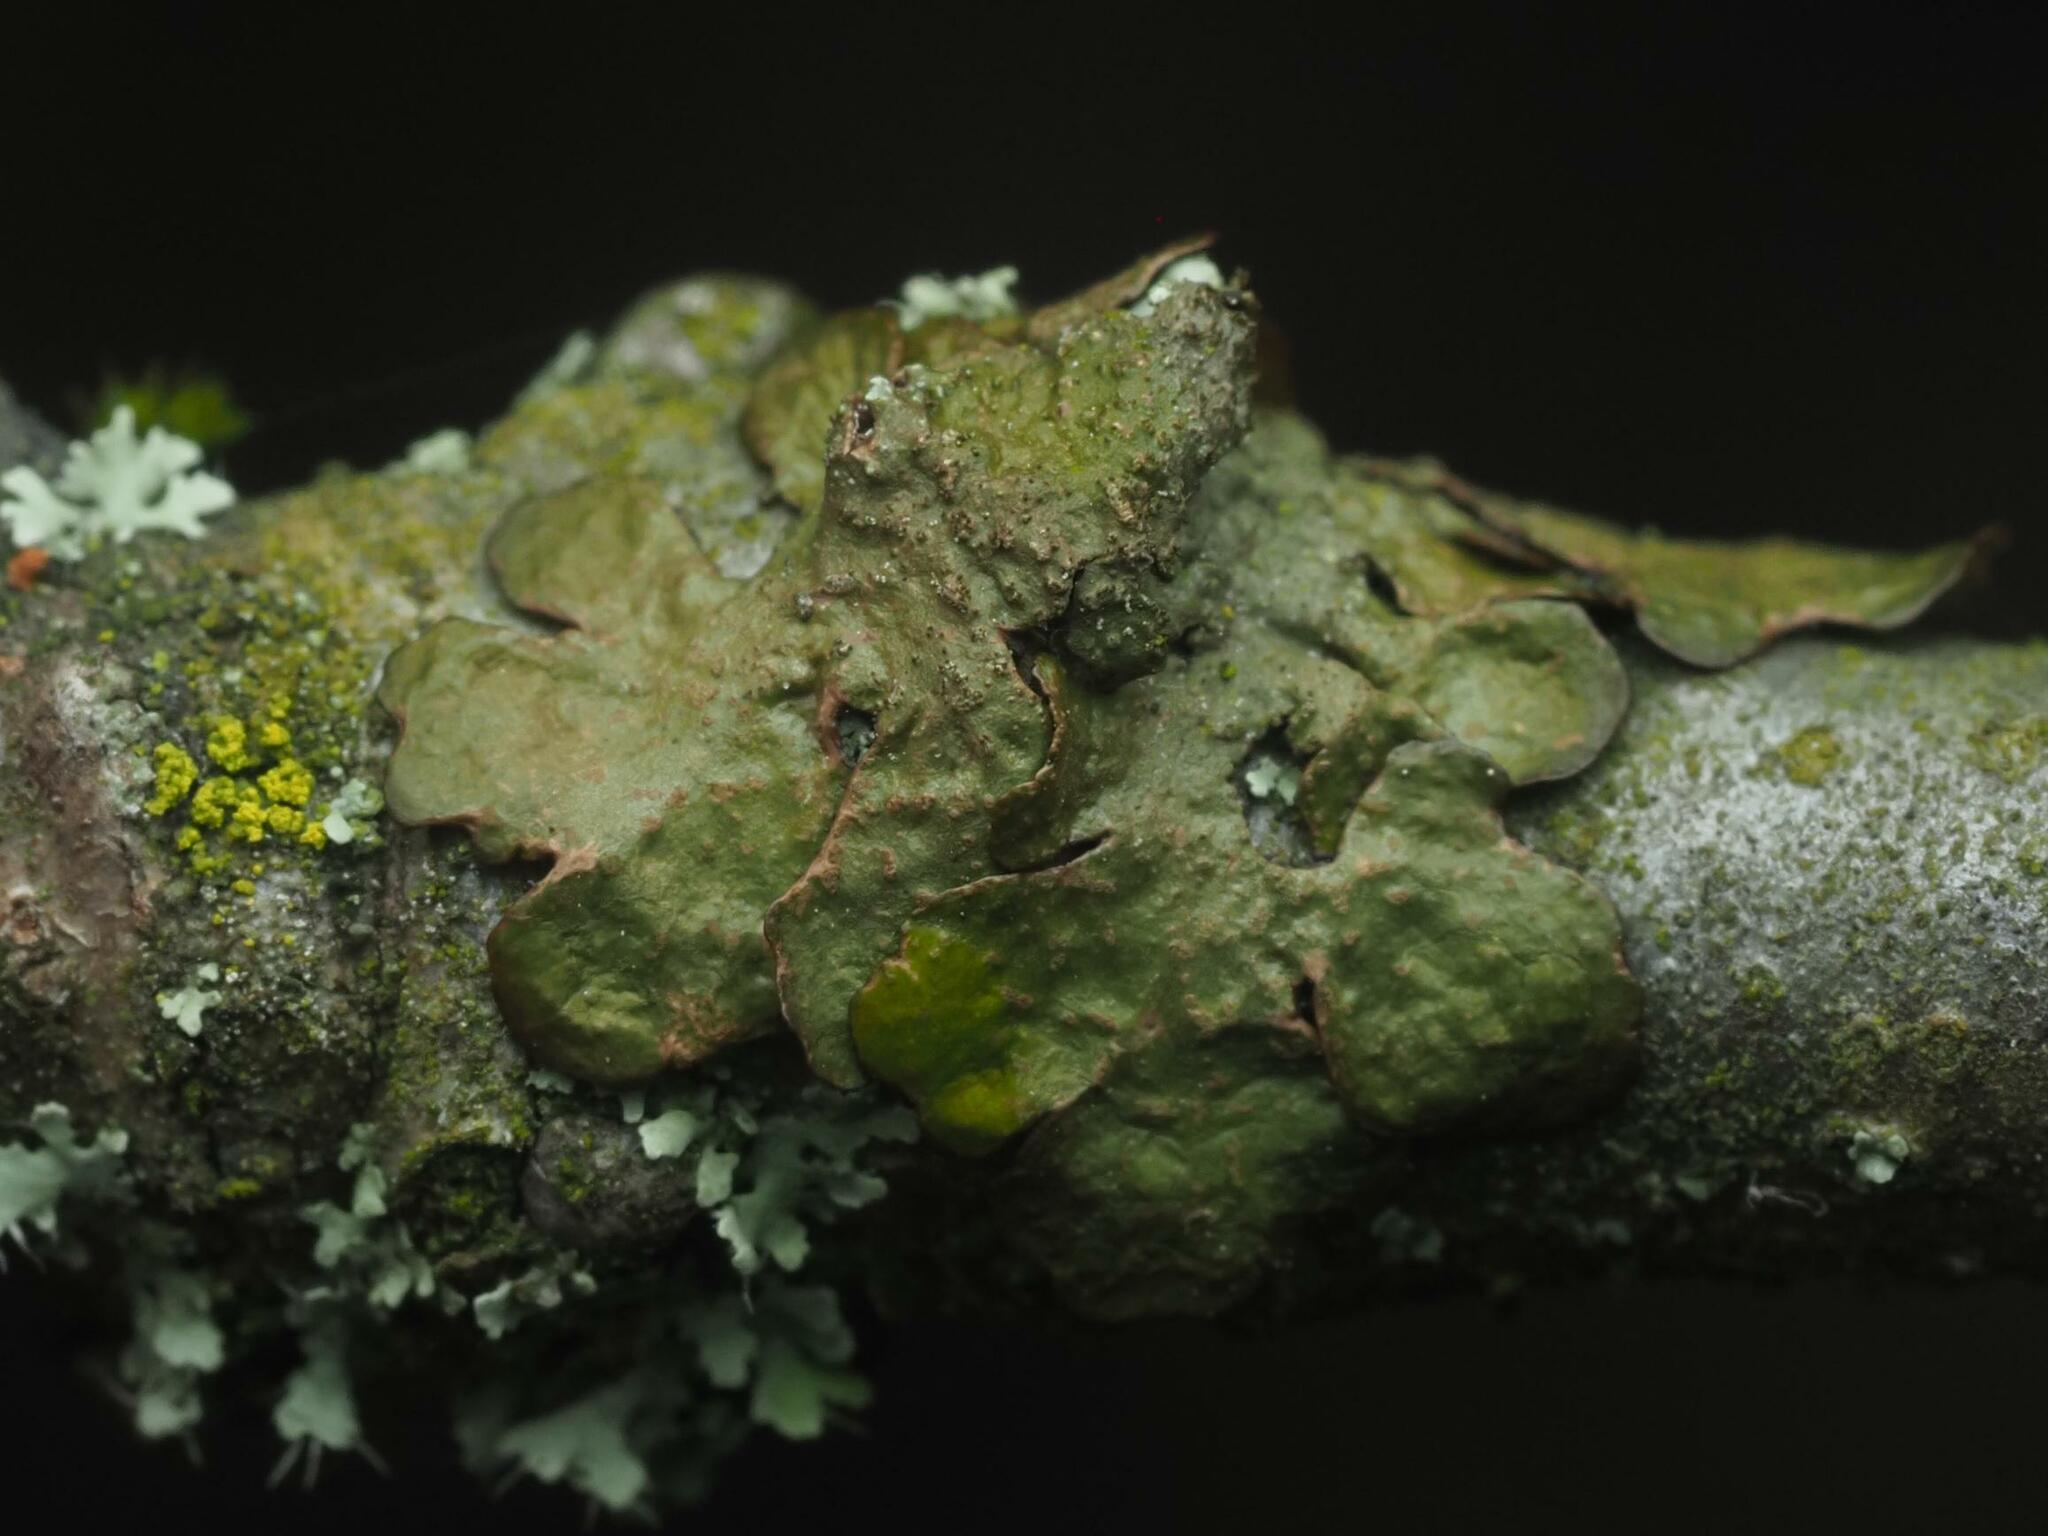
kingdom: Fungi
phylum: Ascomycota
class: Lecanoromycetes
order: Lecanorales
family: Parmeliaceae
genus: Melanelixia
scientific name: Melanelixia subaurifera
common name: Abraded camouflage lichen
